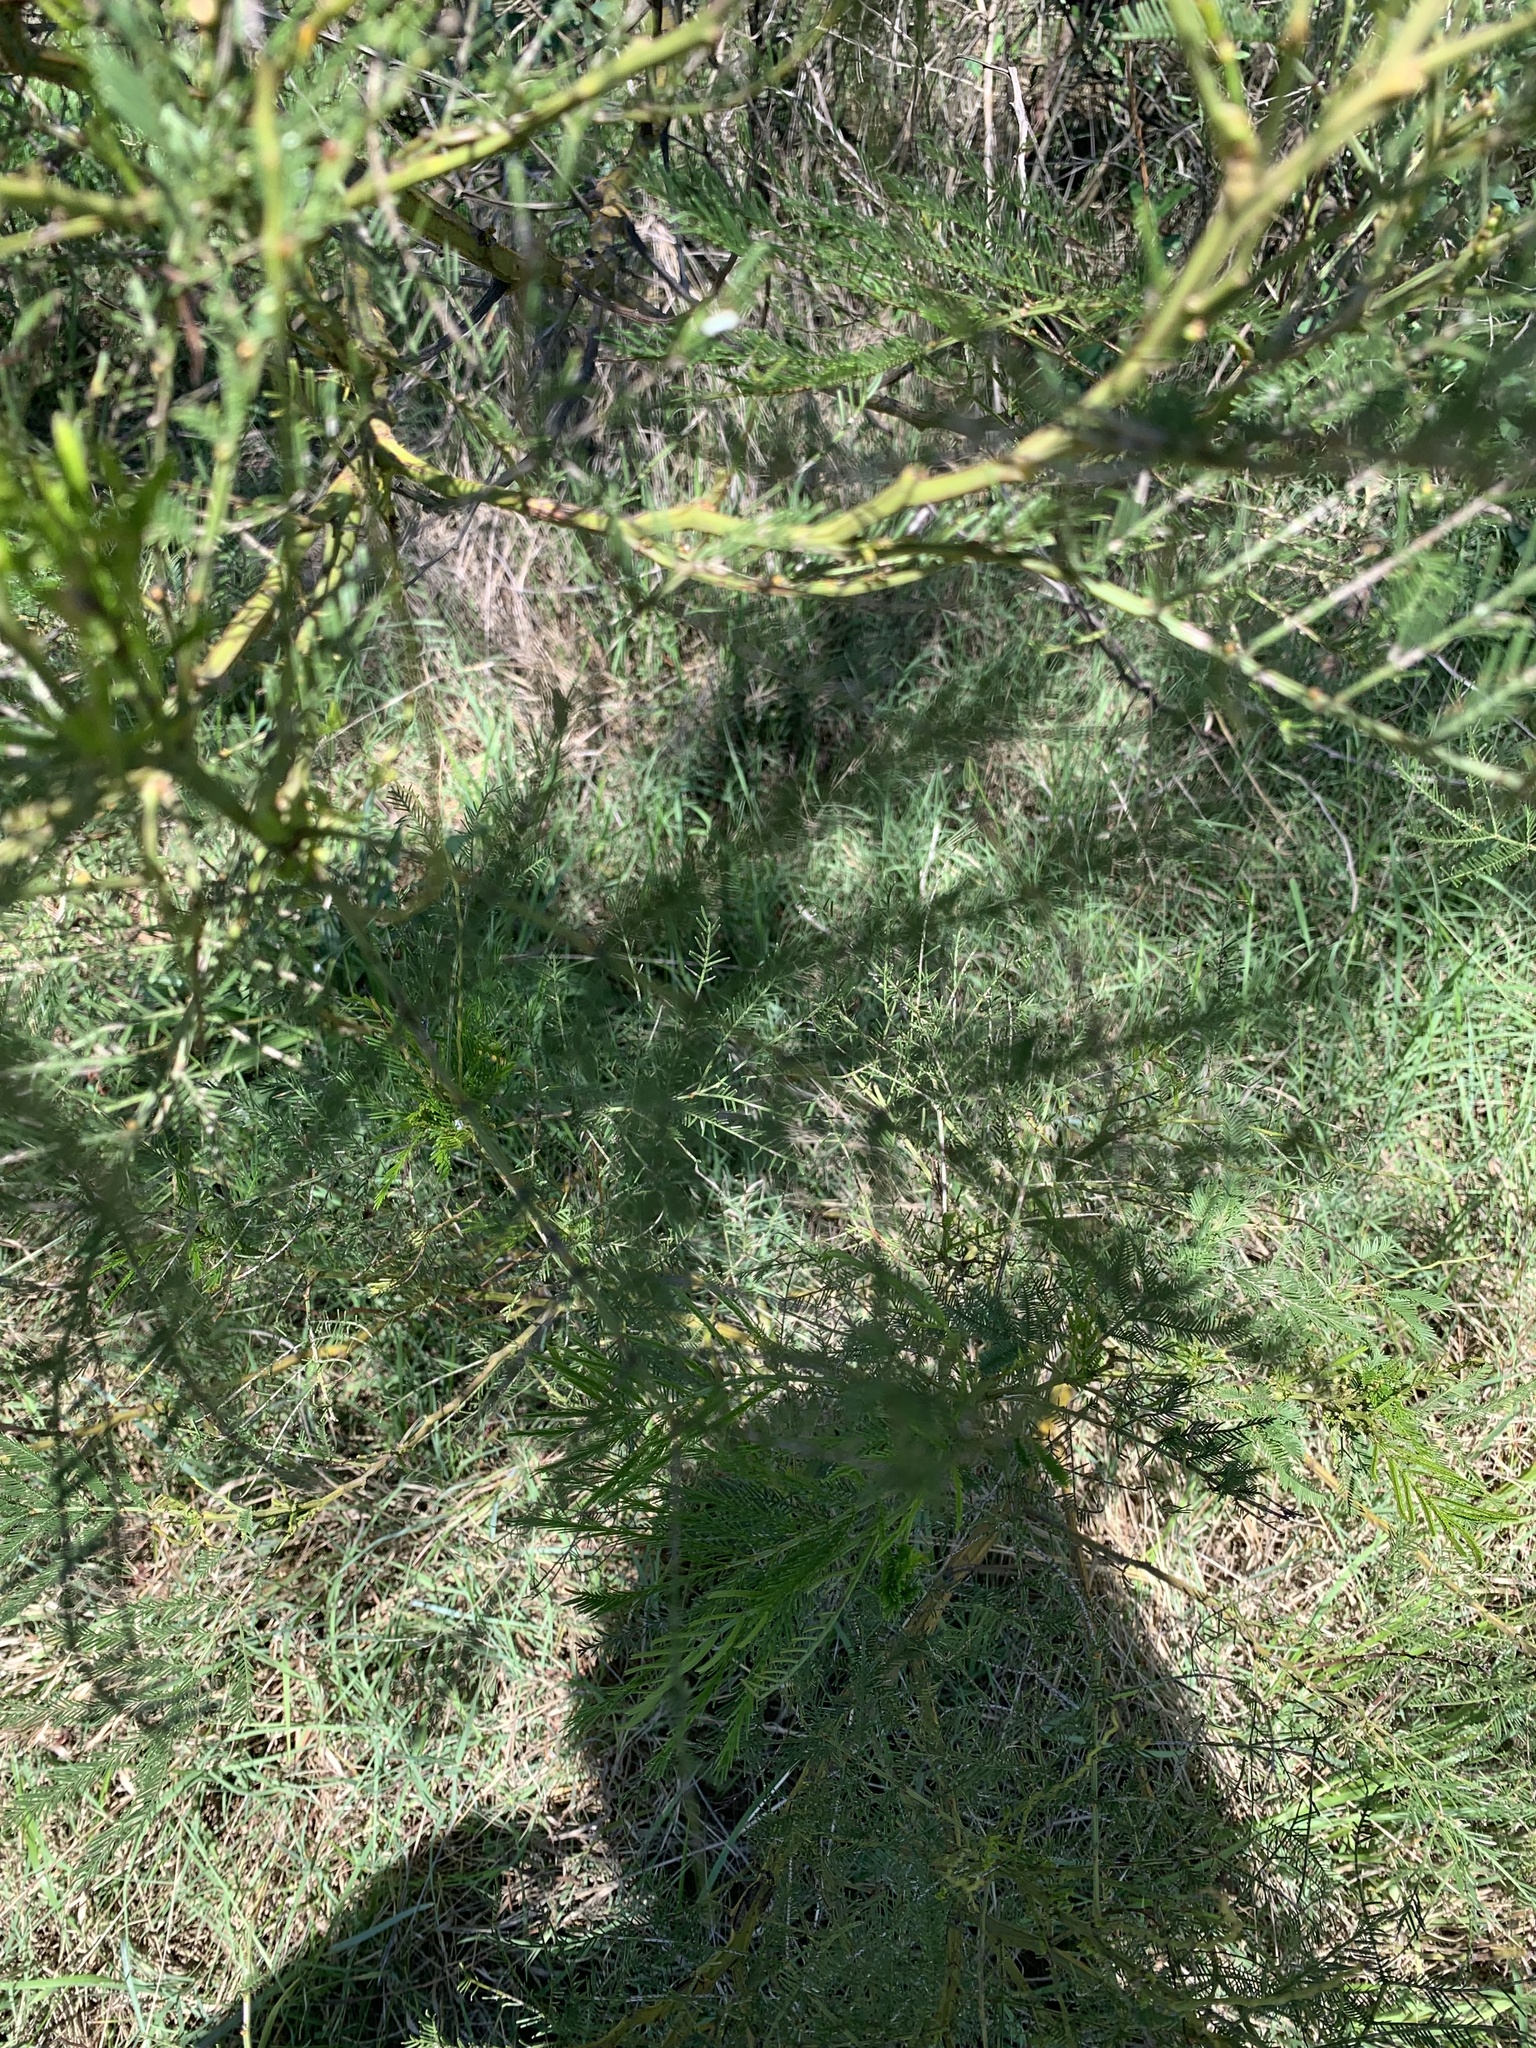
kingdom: Plantae
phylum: Tracheophyta
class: Magnoliopsida
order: Fabales
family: Fabaceae
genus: Acacia
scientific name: Acacia decurrens
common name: Green wattle
